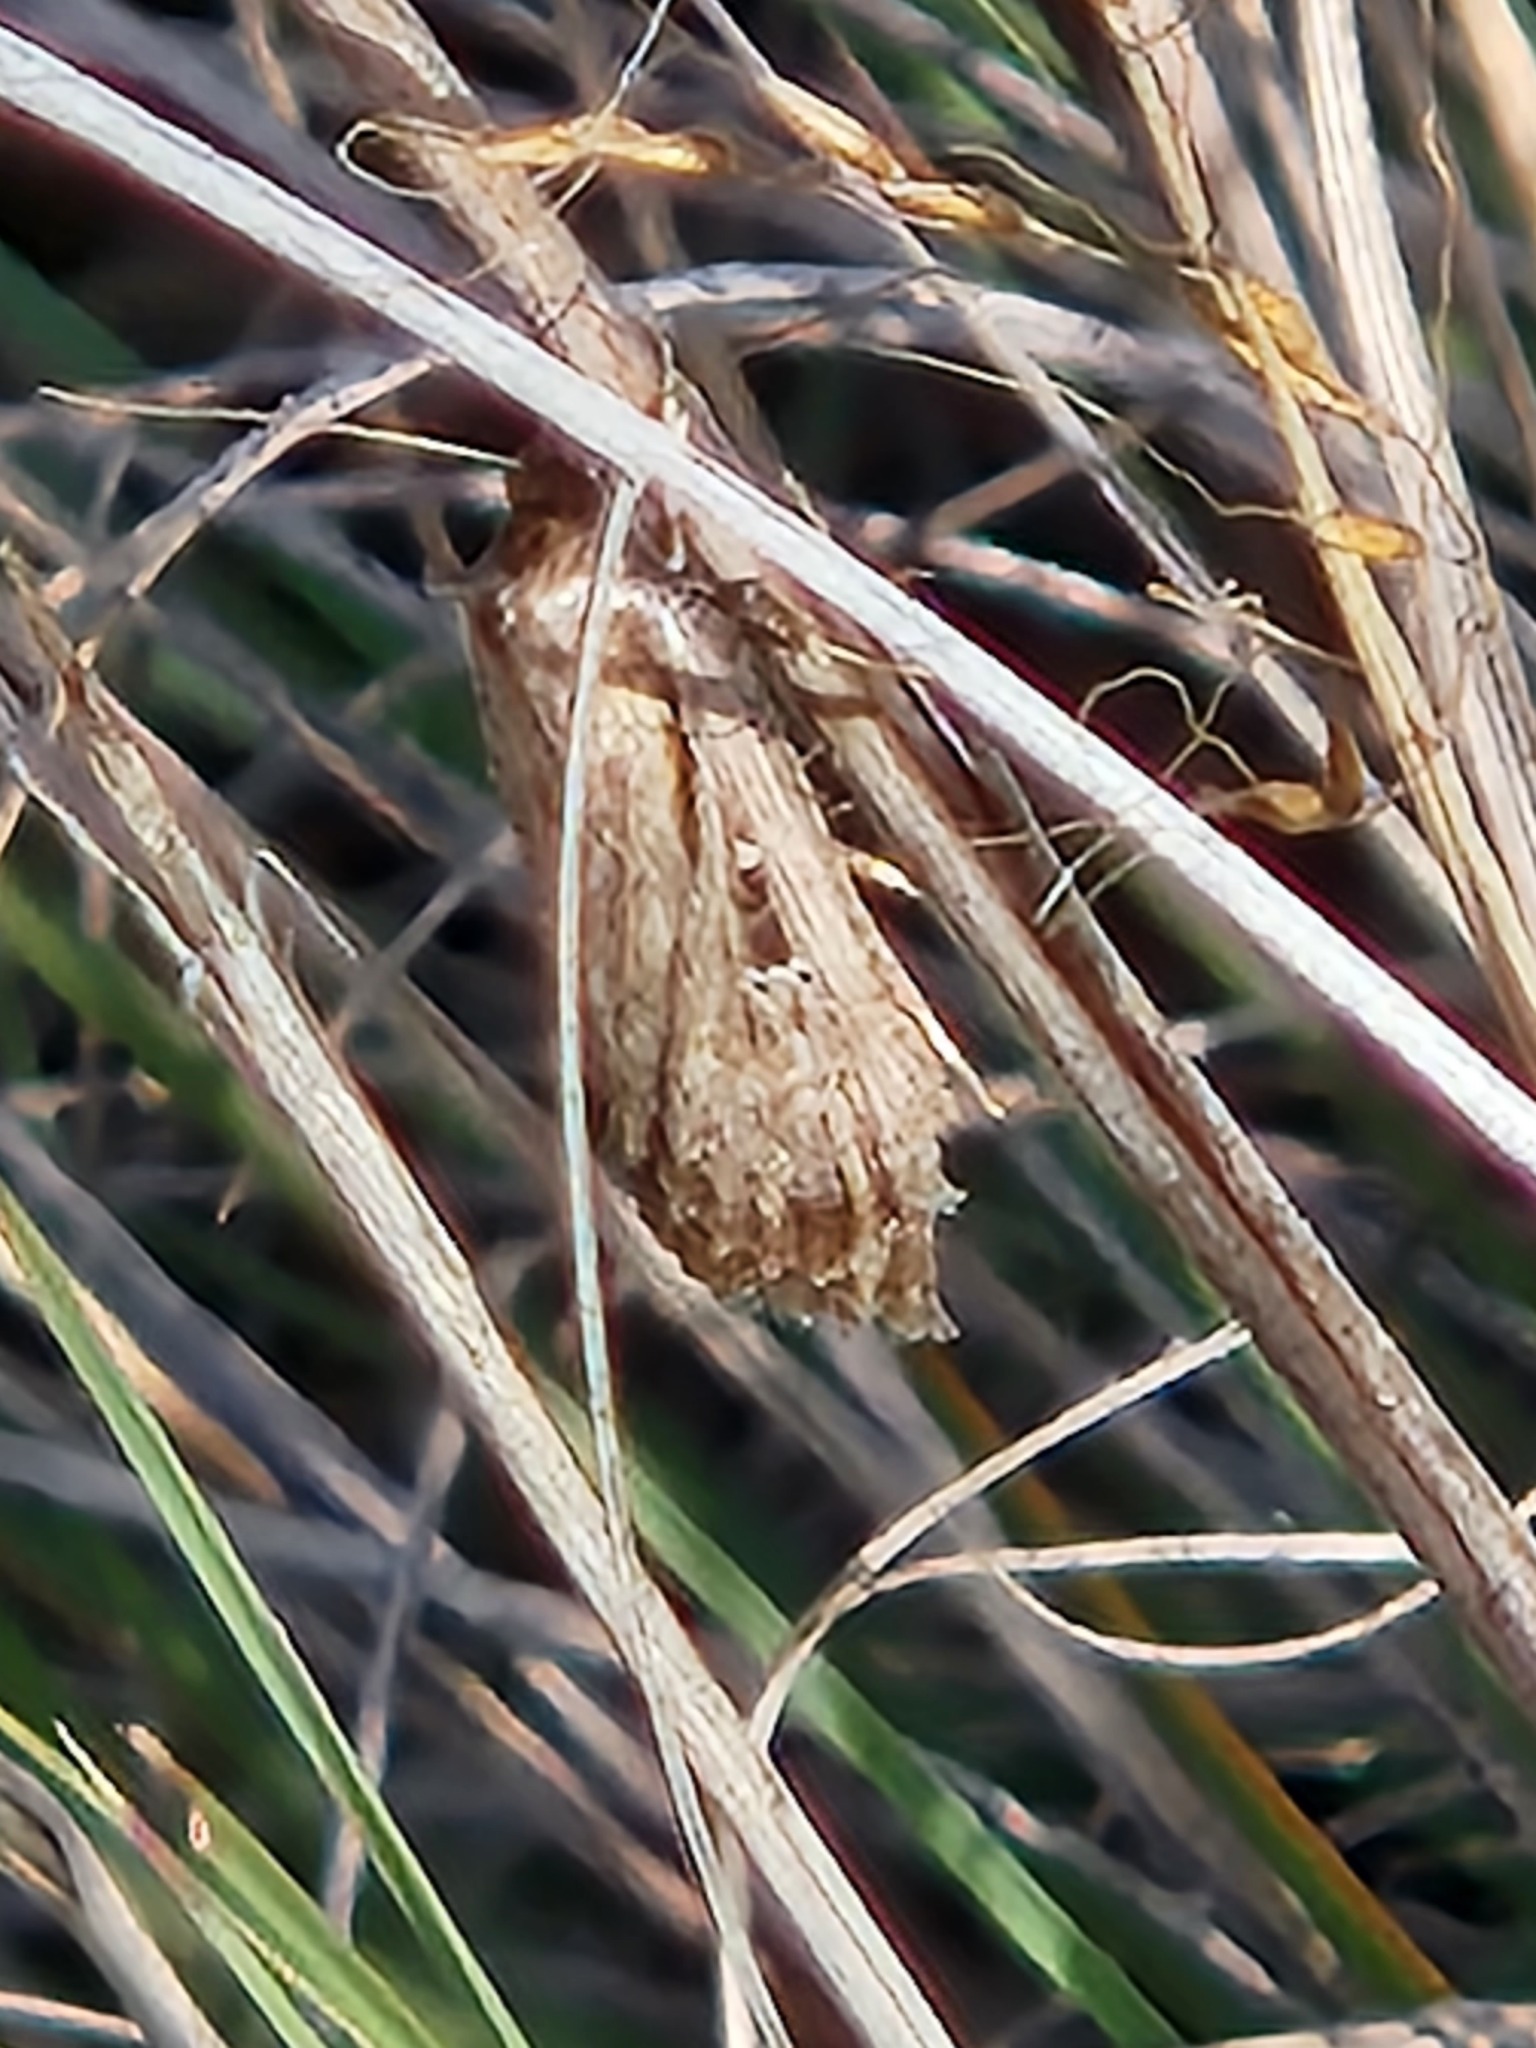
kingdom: Animalia
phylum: Arthropoda
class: Insecta
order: Lepidoptera
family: Noctuidae
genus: Tathorhynchus
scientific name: Tathorhynchus exsiccata
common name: Levant blackneck moth
